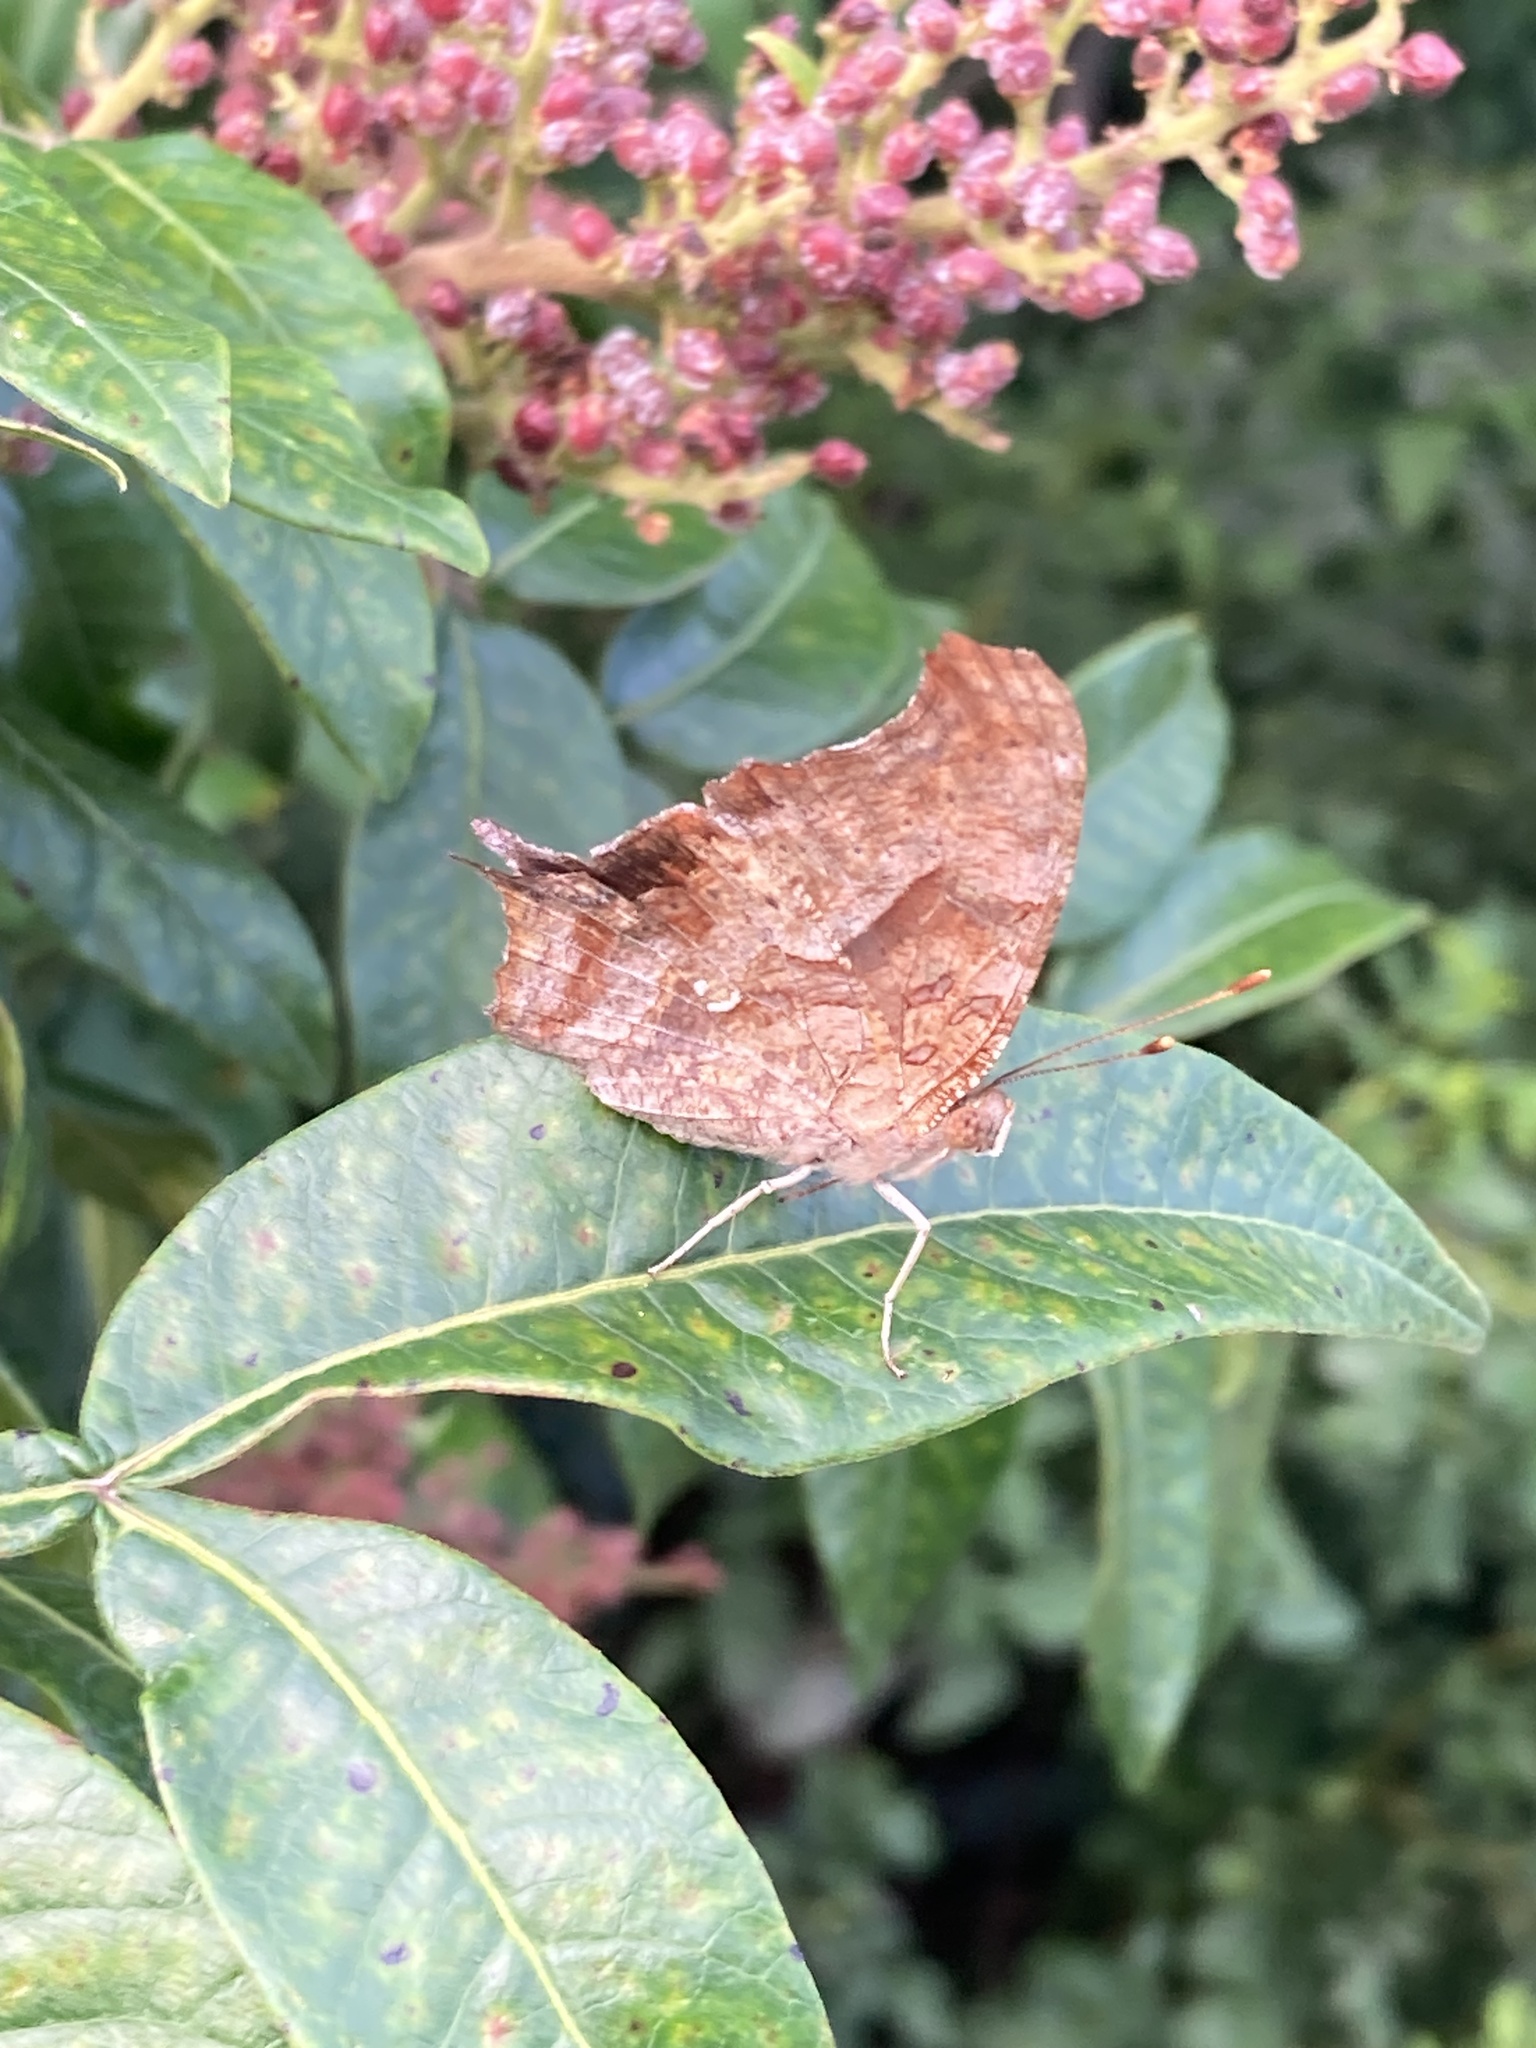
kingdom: Animalia
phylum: Arthropoda
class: Insecta
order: Lepidoptera
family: Nymphalidae
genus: Polygonia
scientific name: Polygonia interrogationis
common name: Question mark
